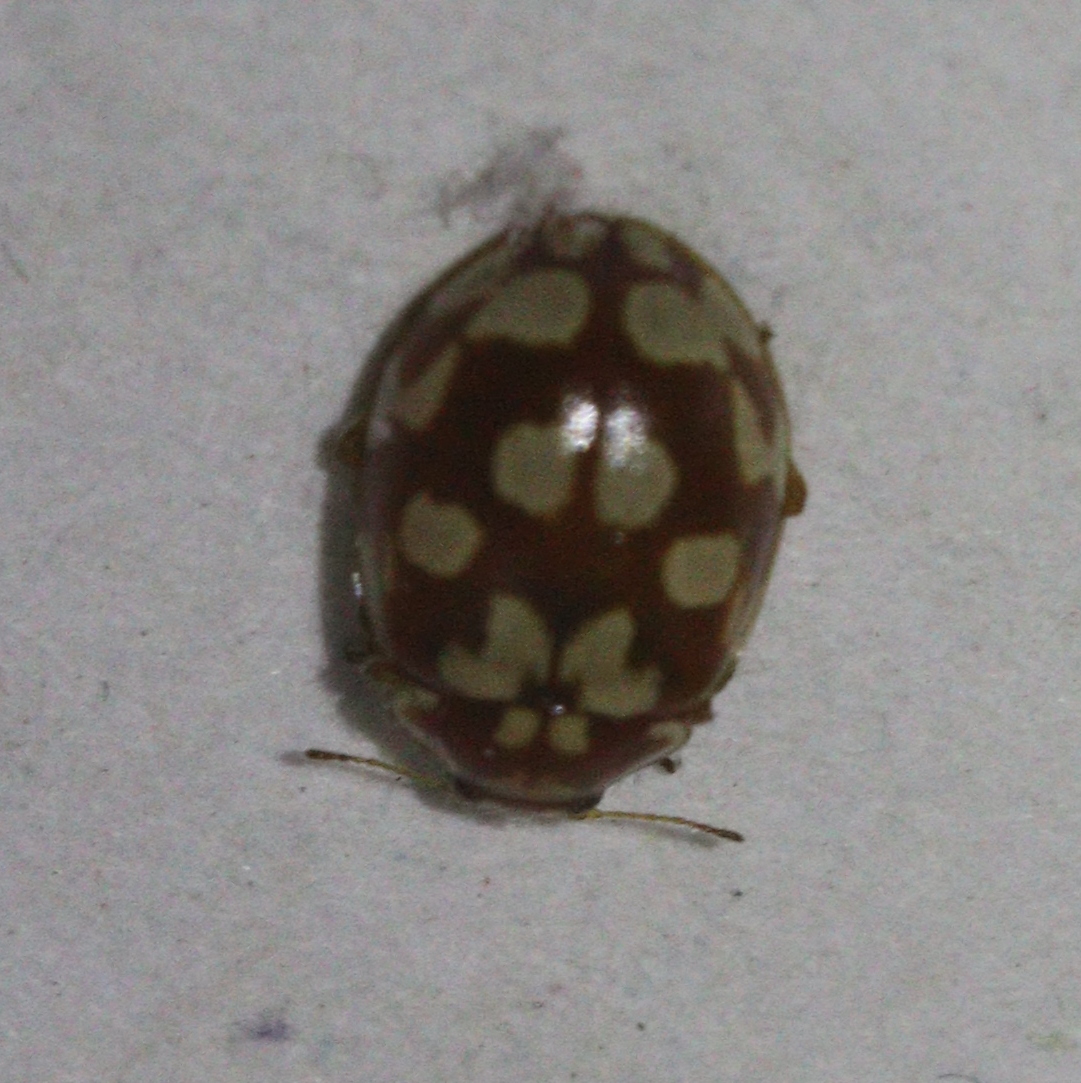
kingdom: Animalia
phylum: Arthropoda
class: Insecta
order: Coleoptera
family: Coccinellidae
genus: Myrrha
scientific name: Myrrha octodecimguttata
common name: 18-spot ladybird
